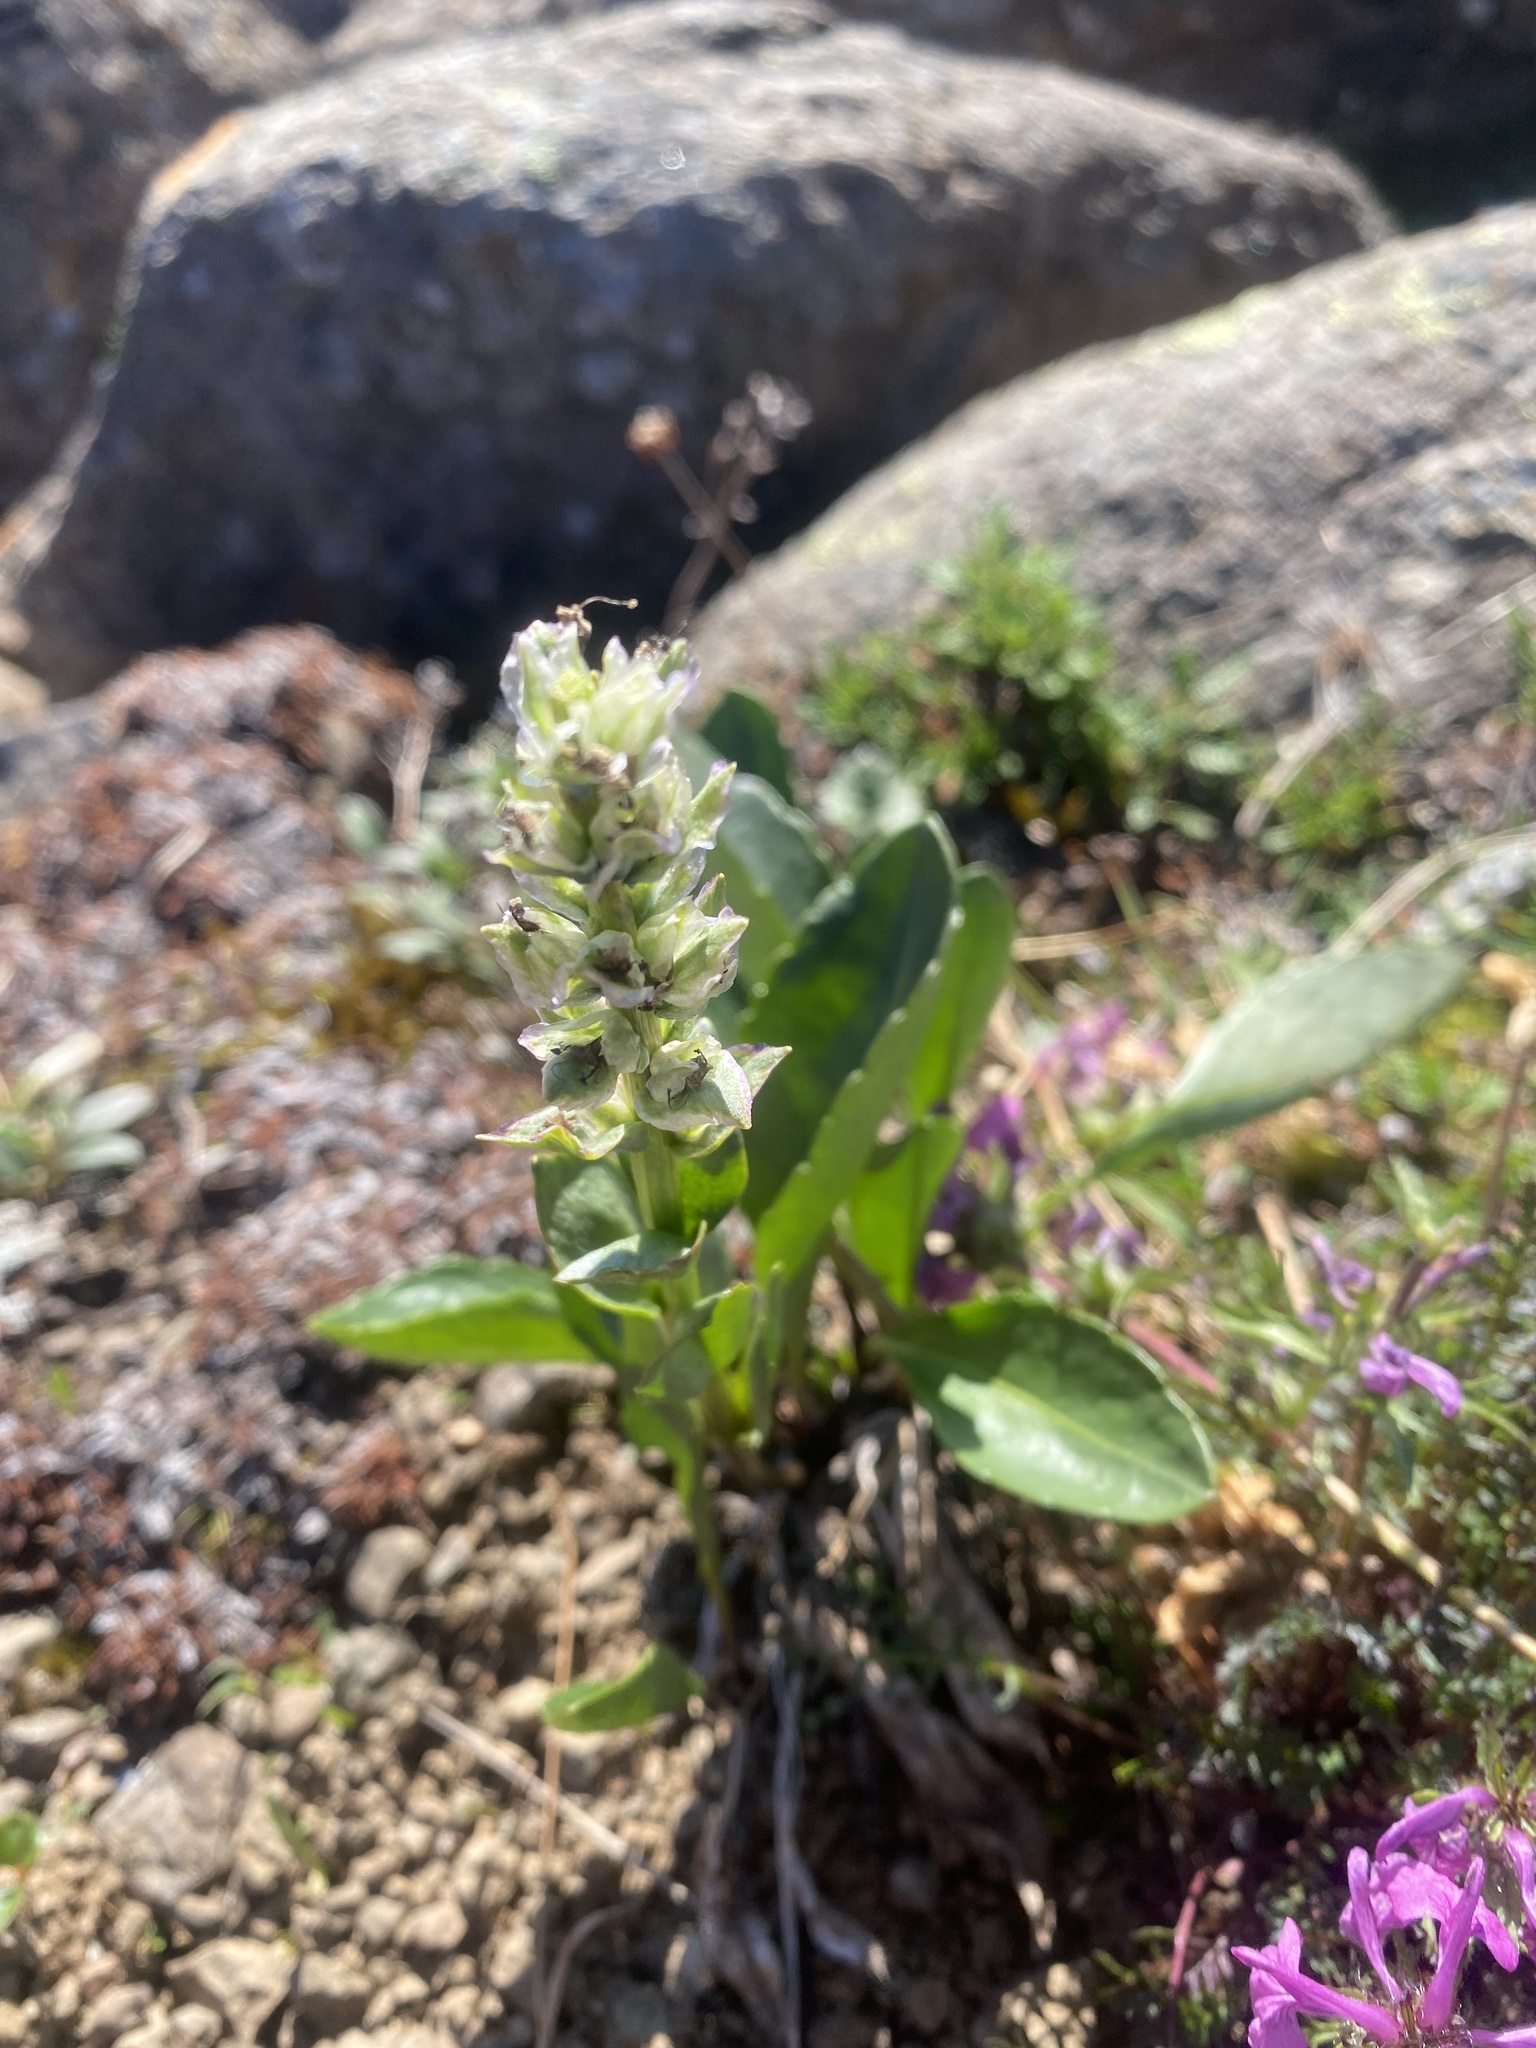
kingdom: Plantae
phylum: Tracheophyta
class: Magnoliopsida
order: Lamiales
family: Plantaginaceae
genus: Lagotis
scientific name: Lagotis glauca
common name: Glaucous weaselsnout
